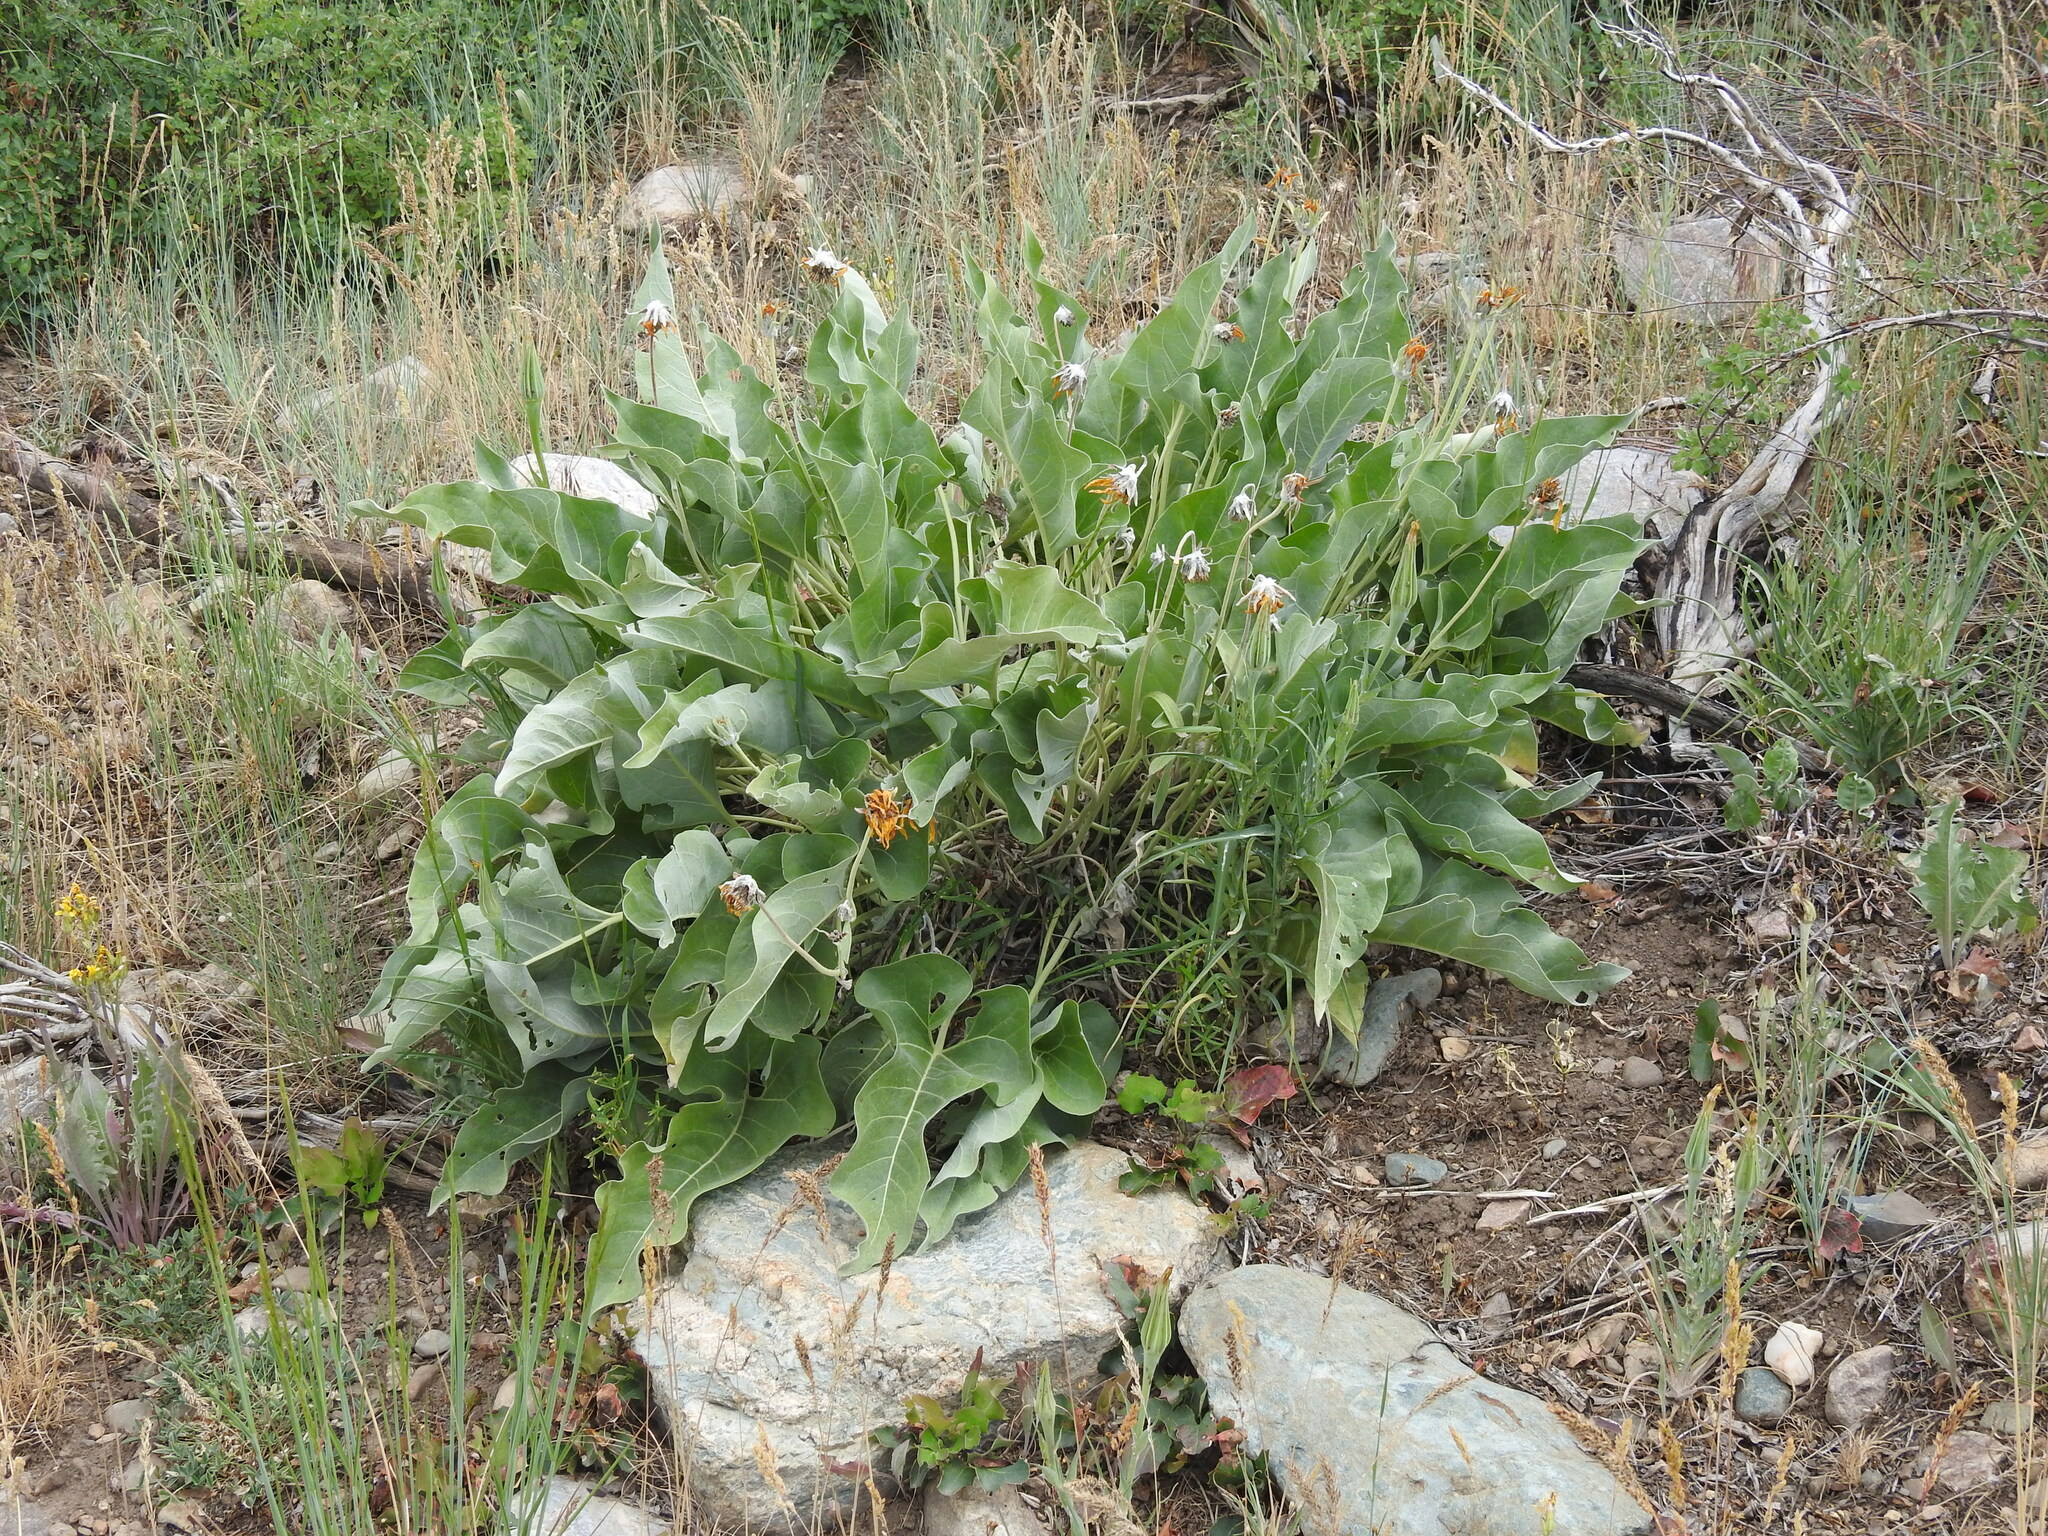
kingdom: Plantae
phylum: Tracheophyta
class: Magnoliopsida
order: Asterales
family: Asteraceae
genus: Wyethia
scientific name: Wyethia sagittata
